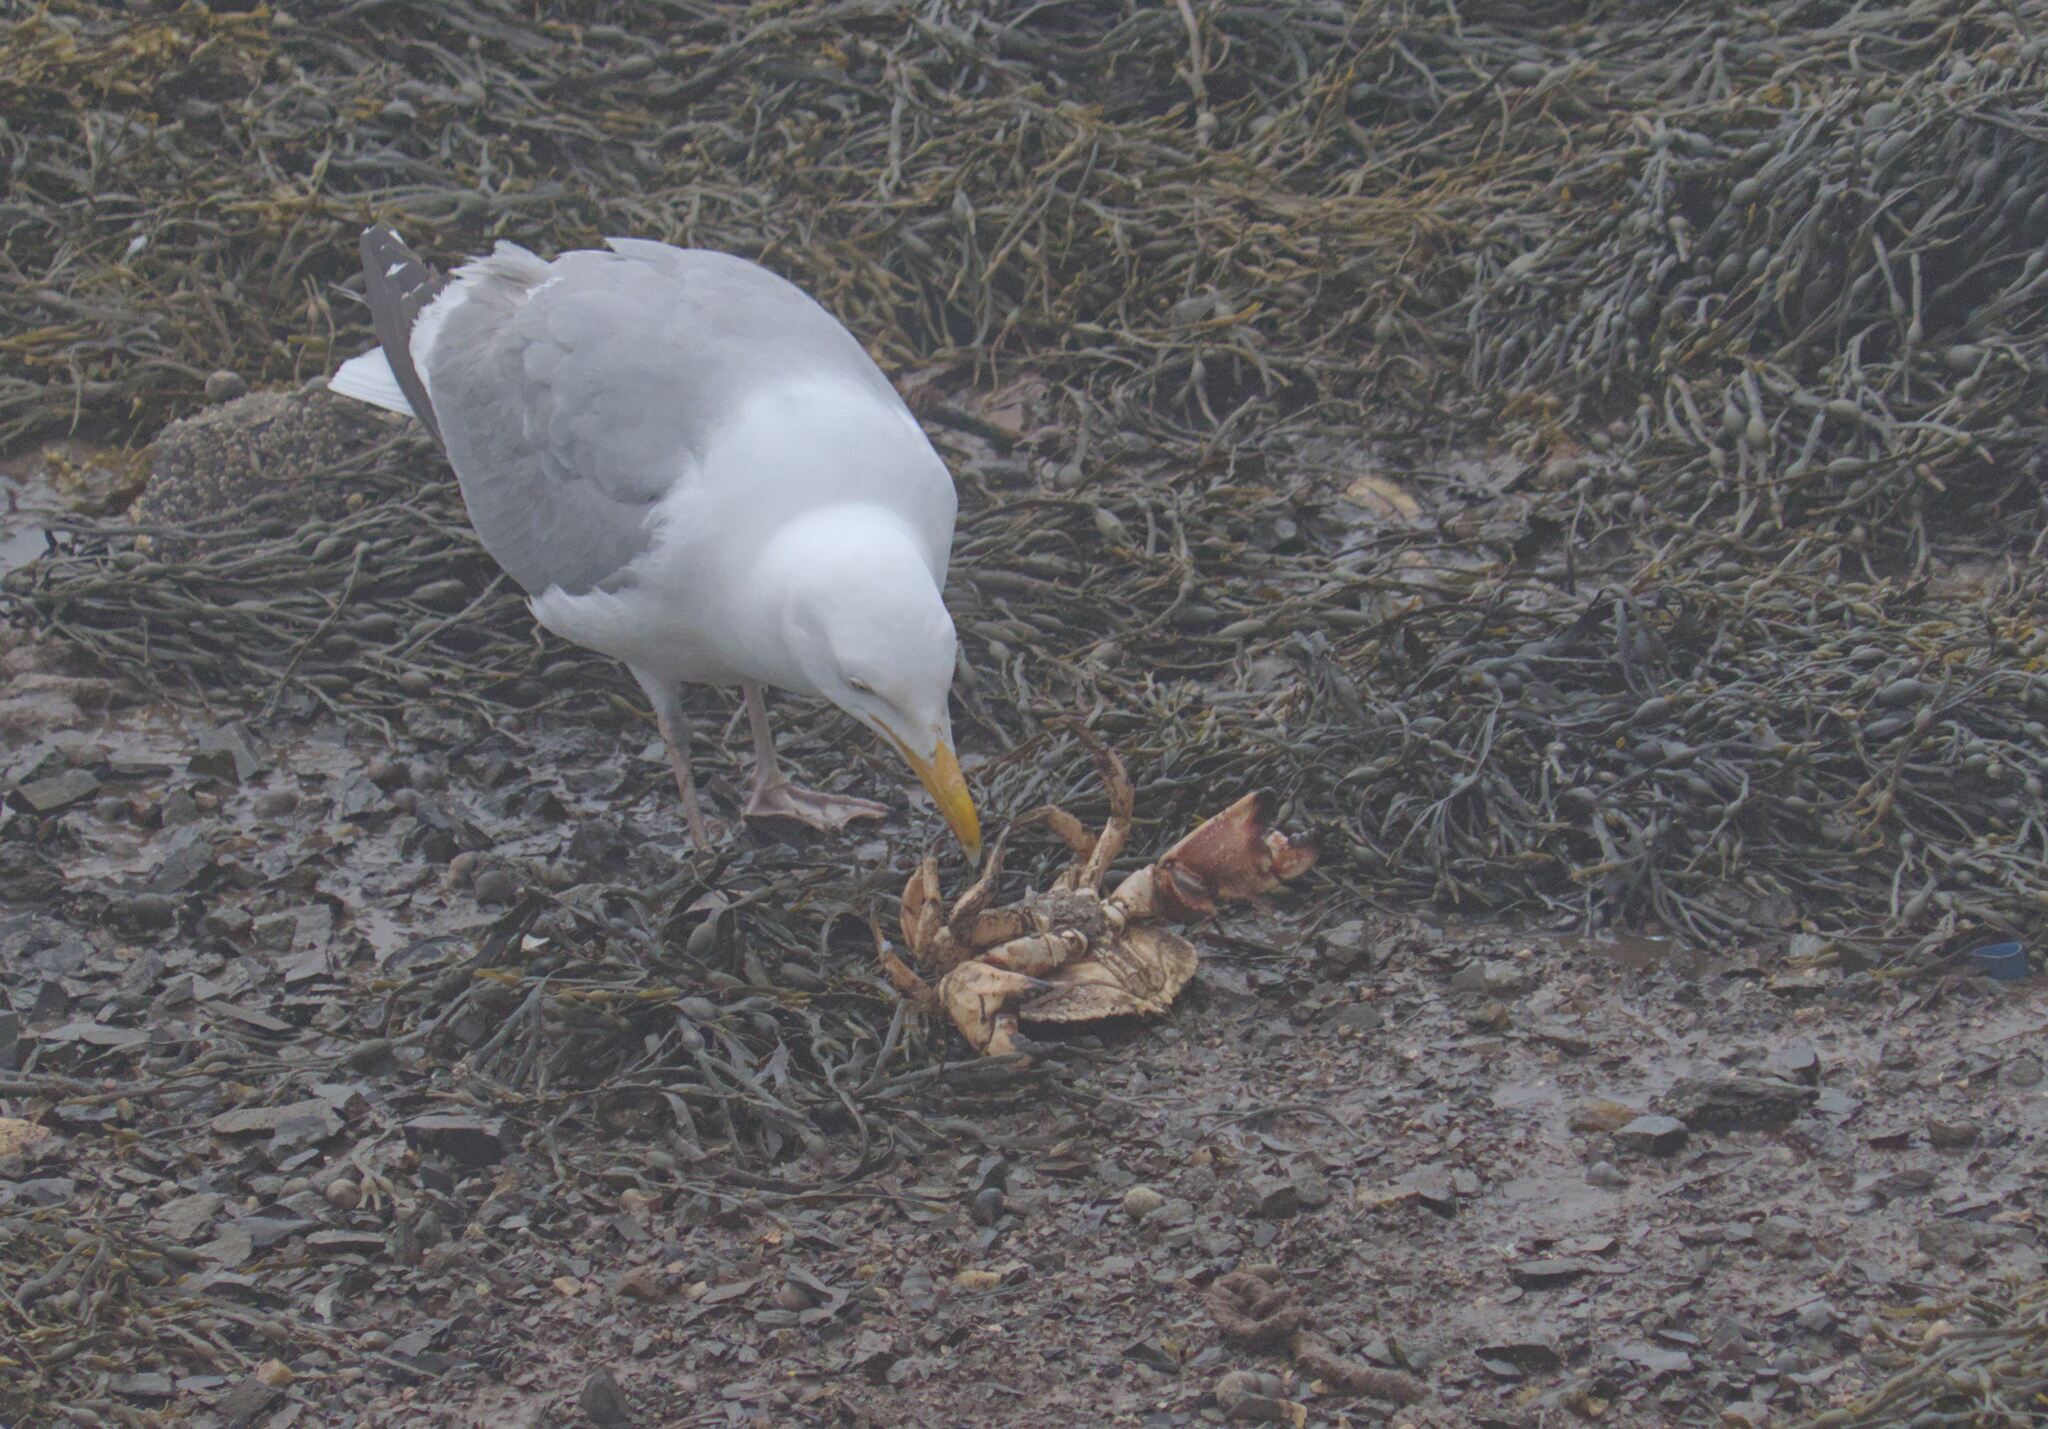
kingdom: Animalia
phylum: Chordata
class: Aves
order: Charadriiformes
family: Laridae
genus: Larus
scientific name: Larus argentatus
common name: Herring gull
